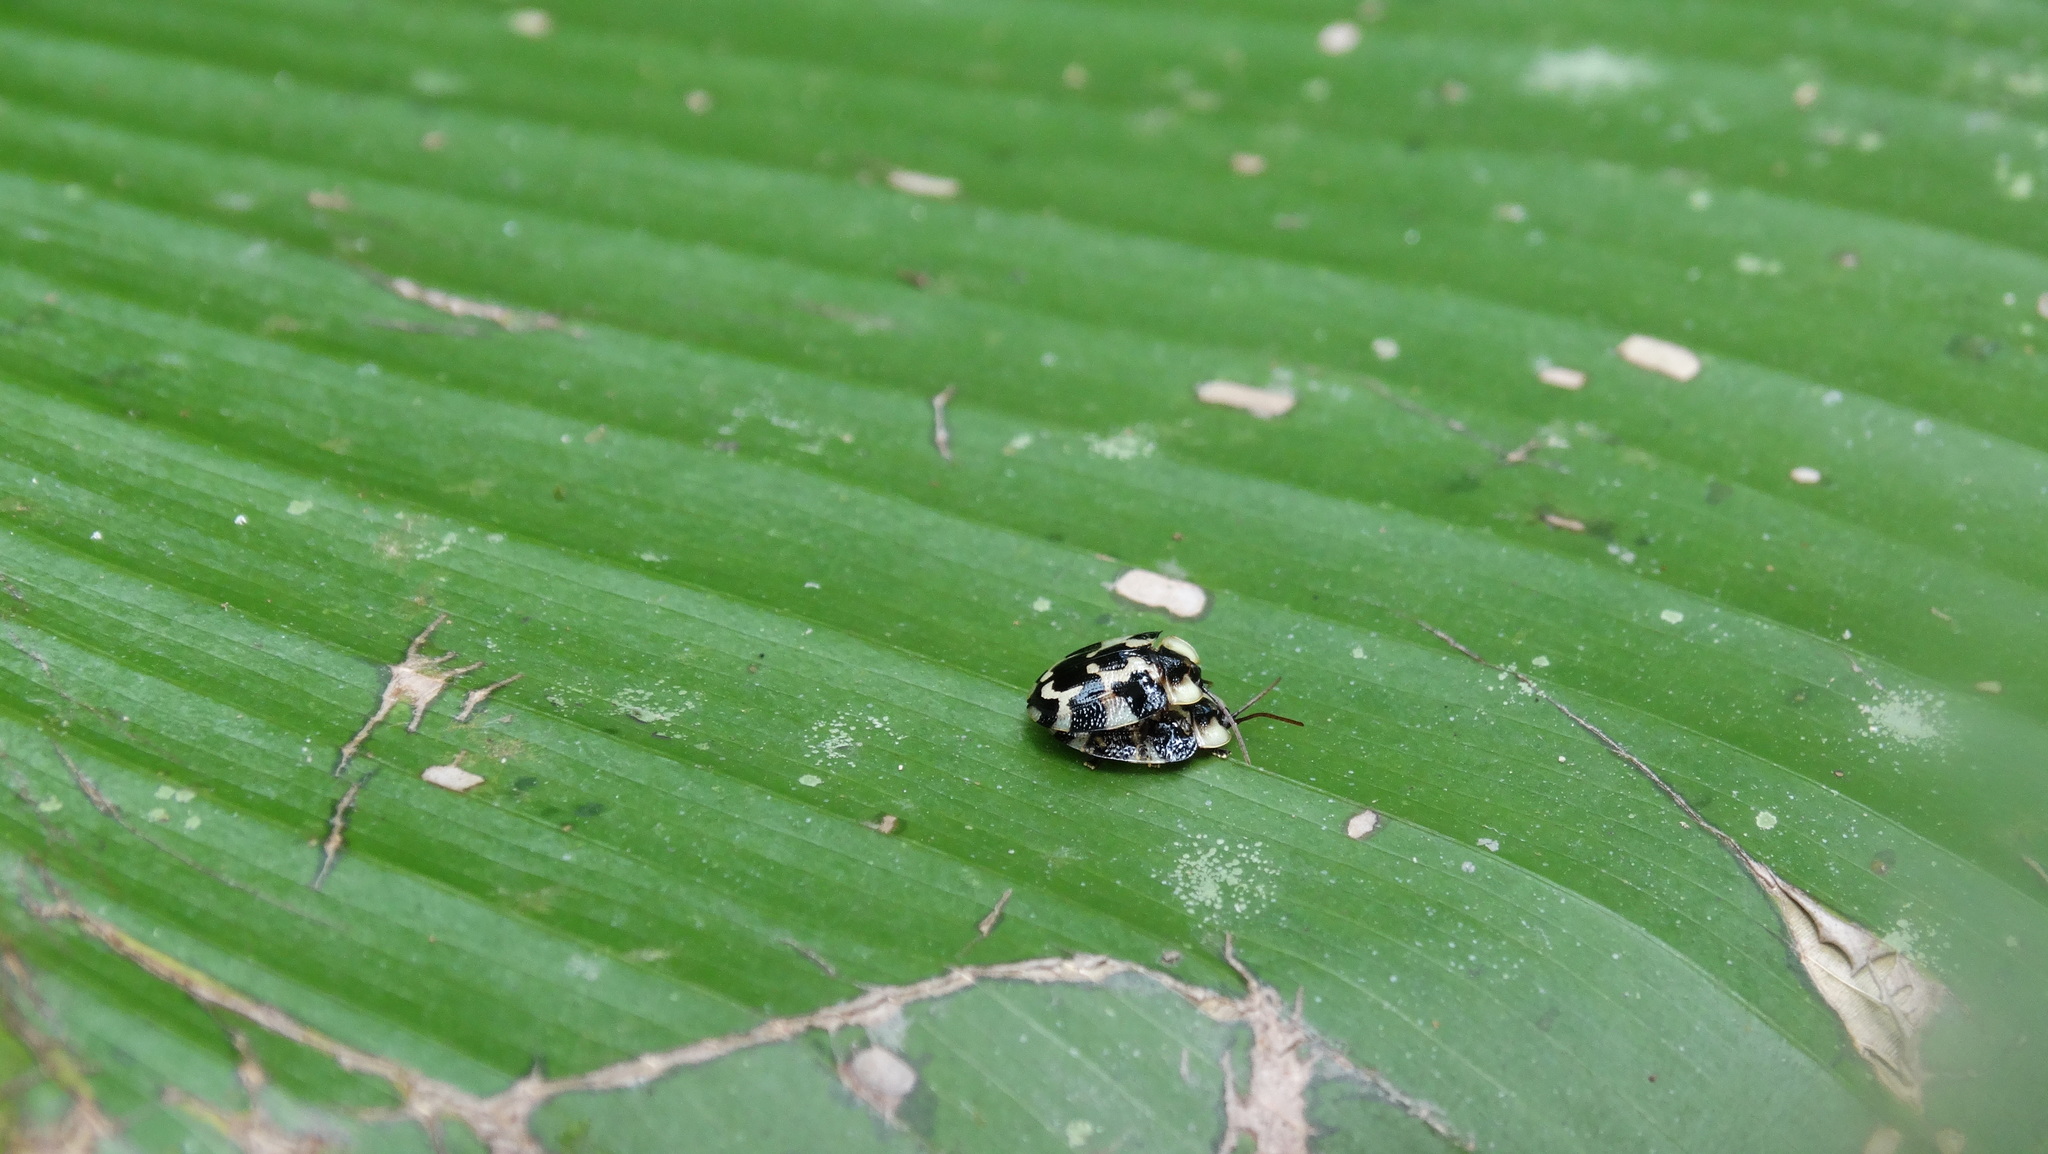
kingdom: Animalia
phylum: Arthropoda
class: Insecta
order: Coleoptera
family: Chrysomelidae
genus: Aslamidium
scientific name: Aslamidium capense
